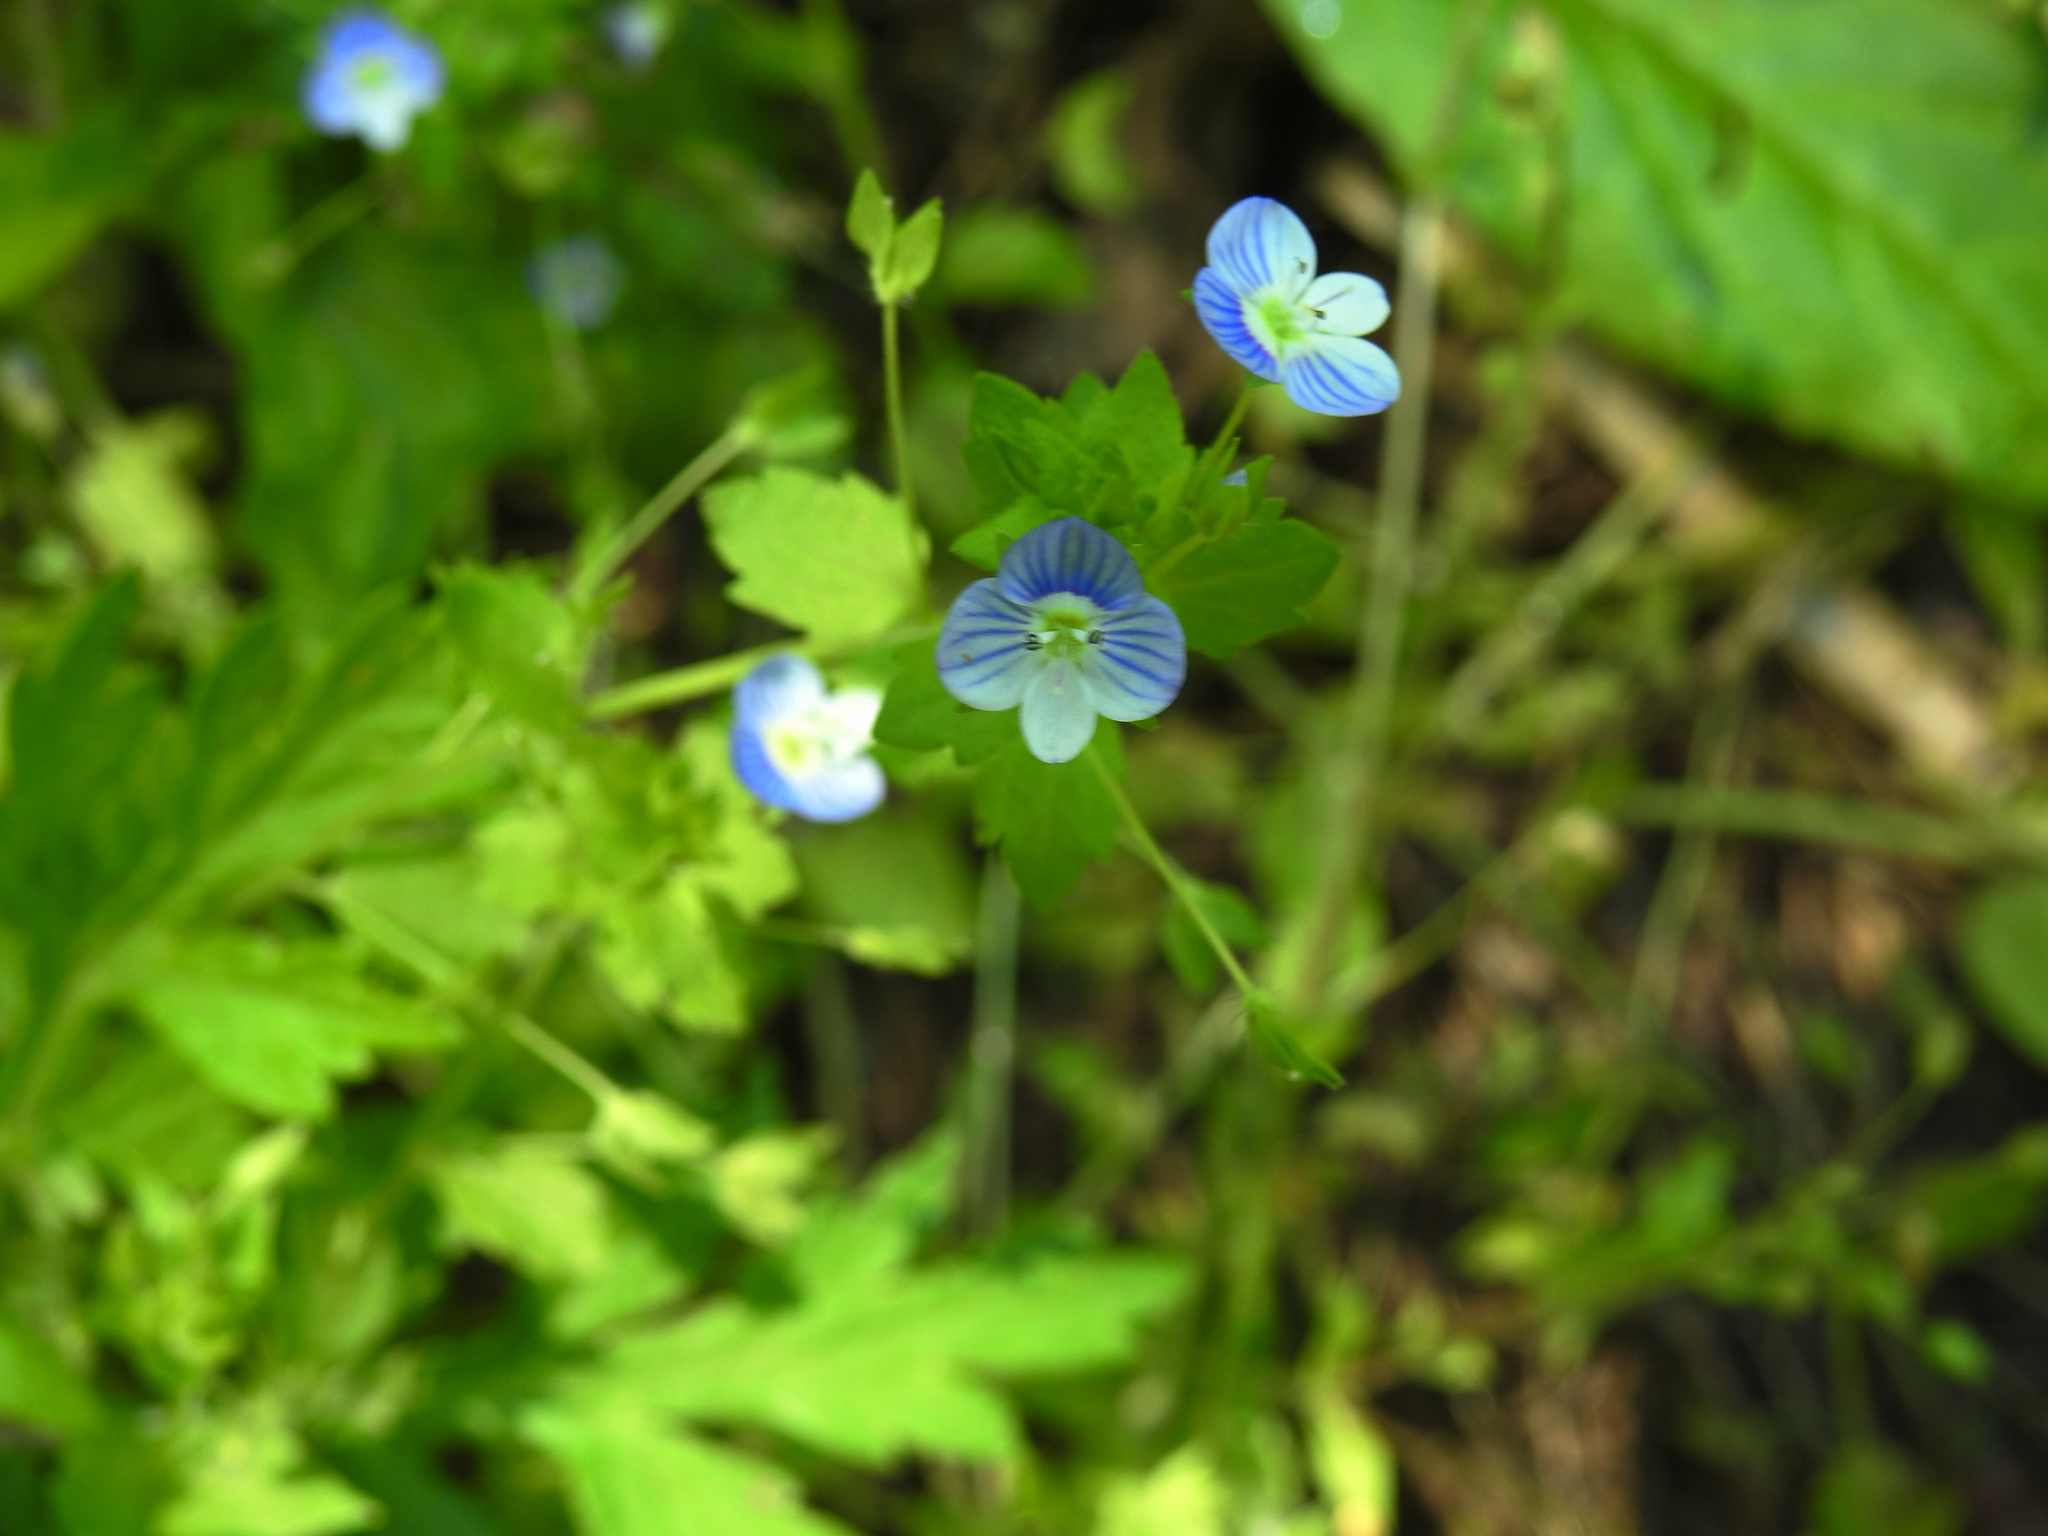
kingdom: Plantae
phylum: Tracheophyta
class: Magnoliopsida
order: Lamiales
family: Plantaginaceae
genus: Veronica
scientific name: Veronica persica
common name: Common field-speedwell
